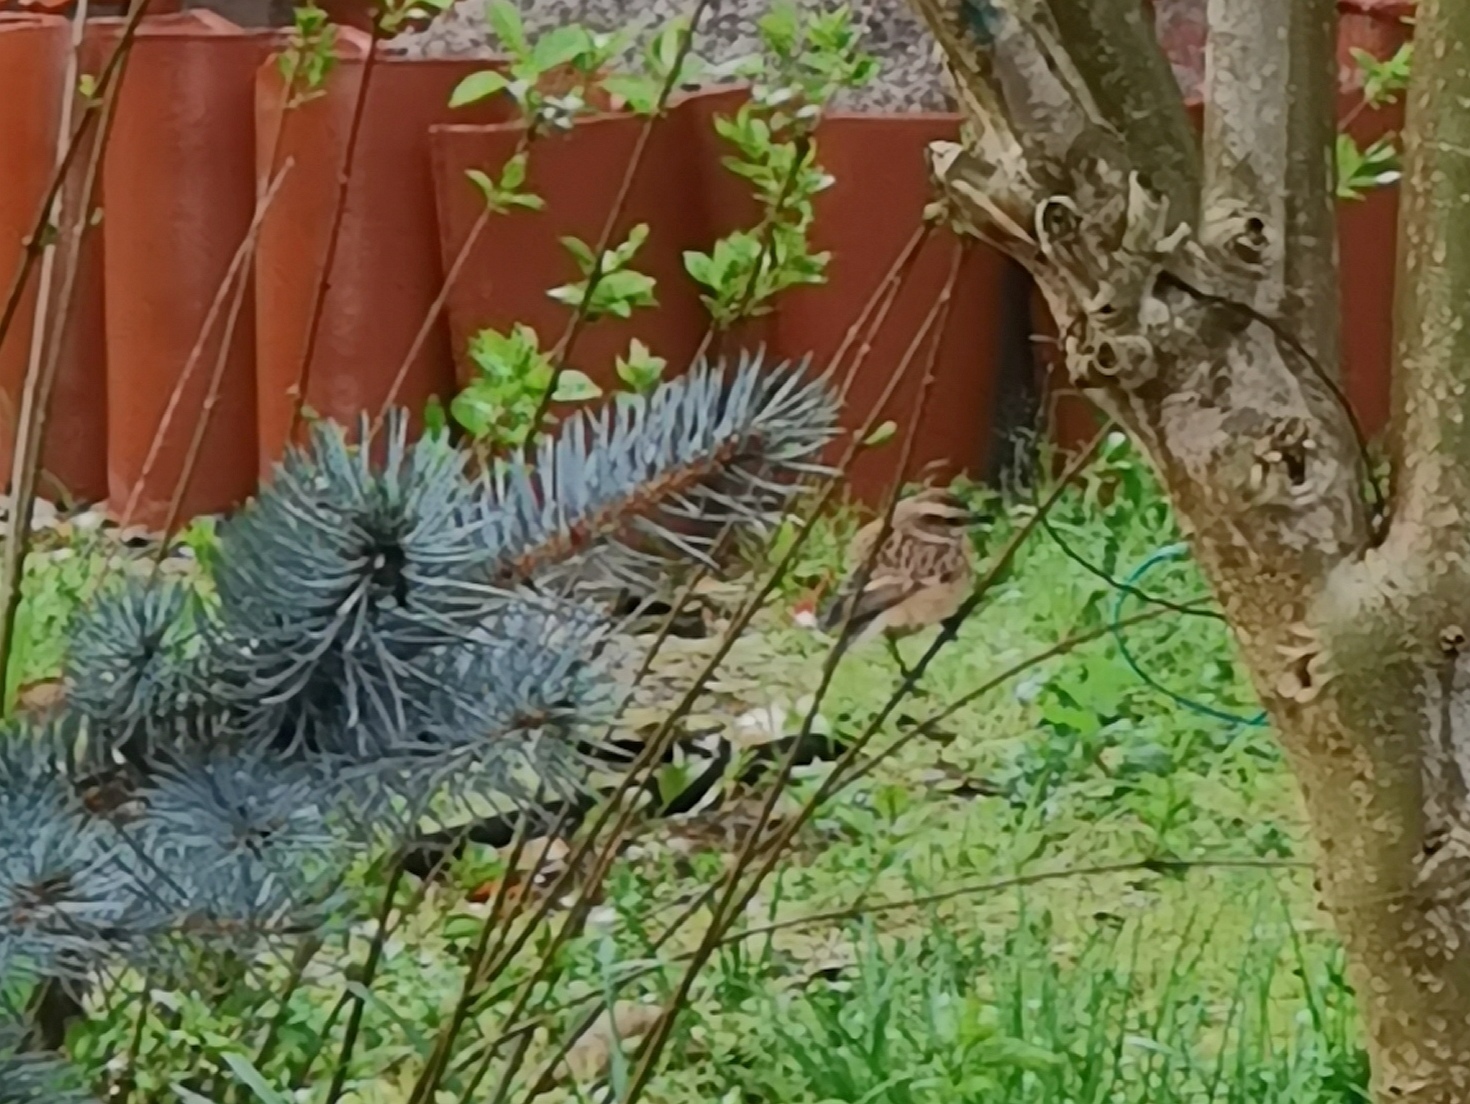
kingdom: Animalia
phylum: Chordata
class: Aves
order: Passeriformes
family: Muscicapidae
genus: Saxicola
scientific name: Saxicola rubetra
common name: Whinchat
